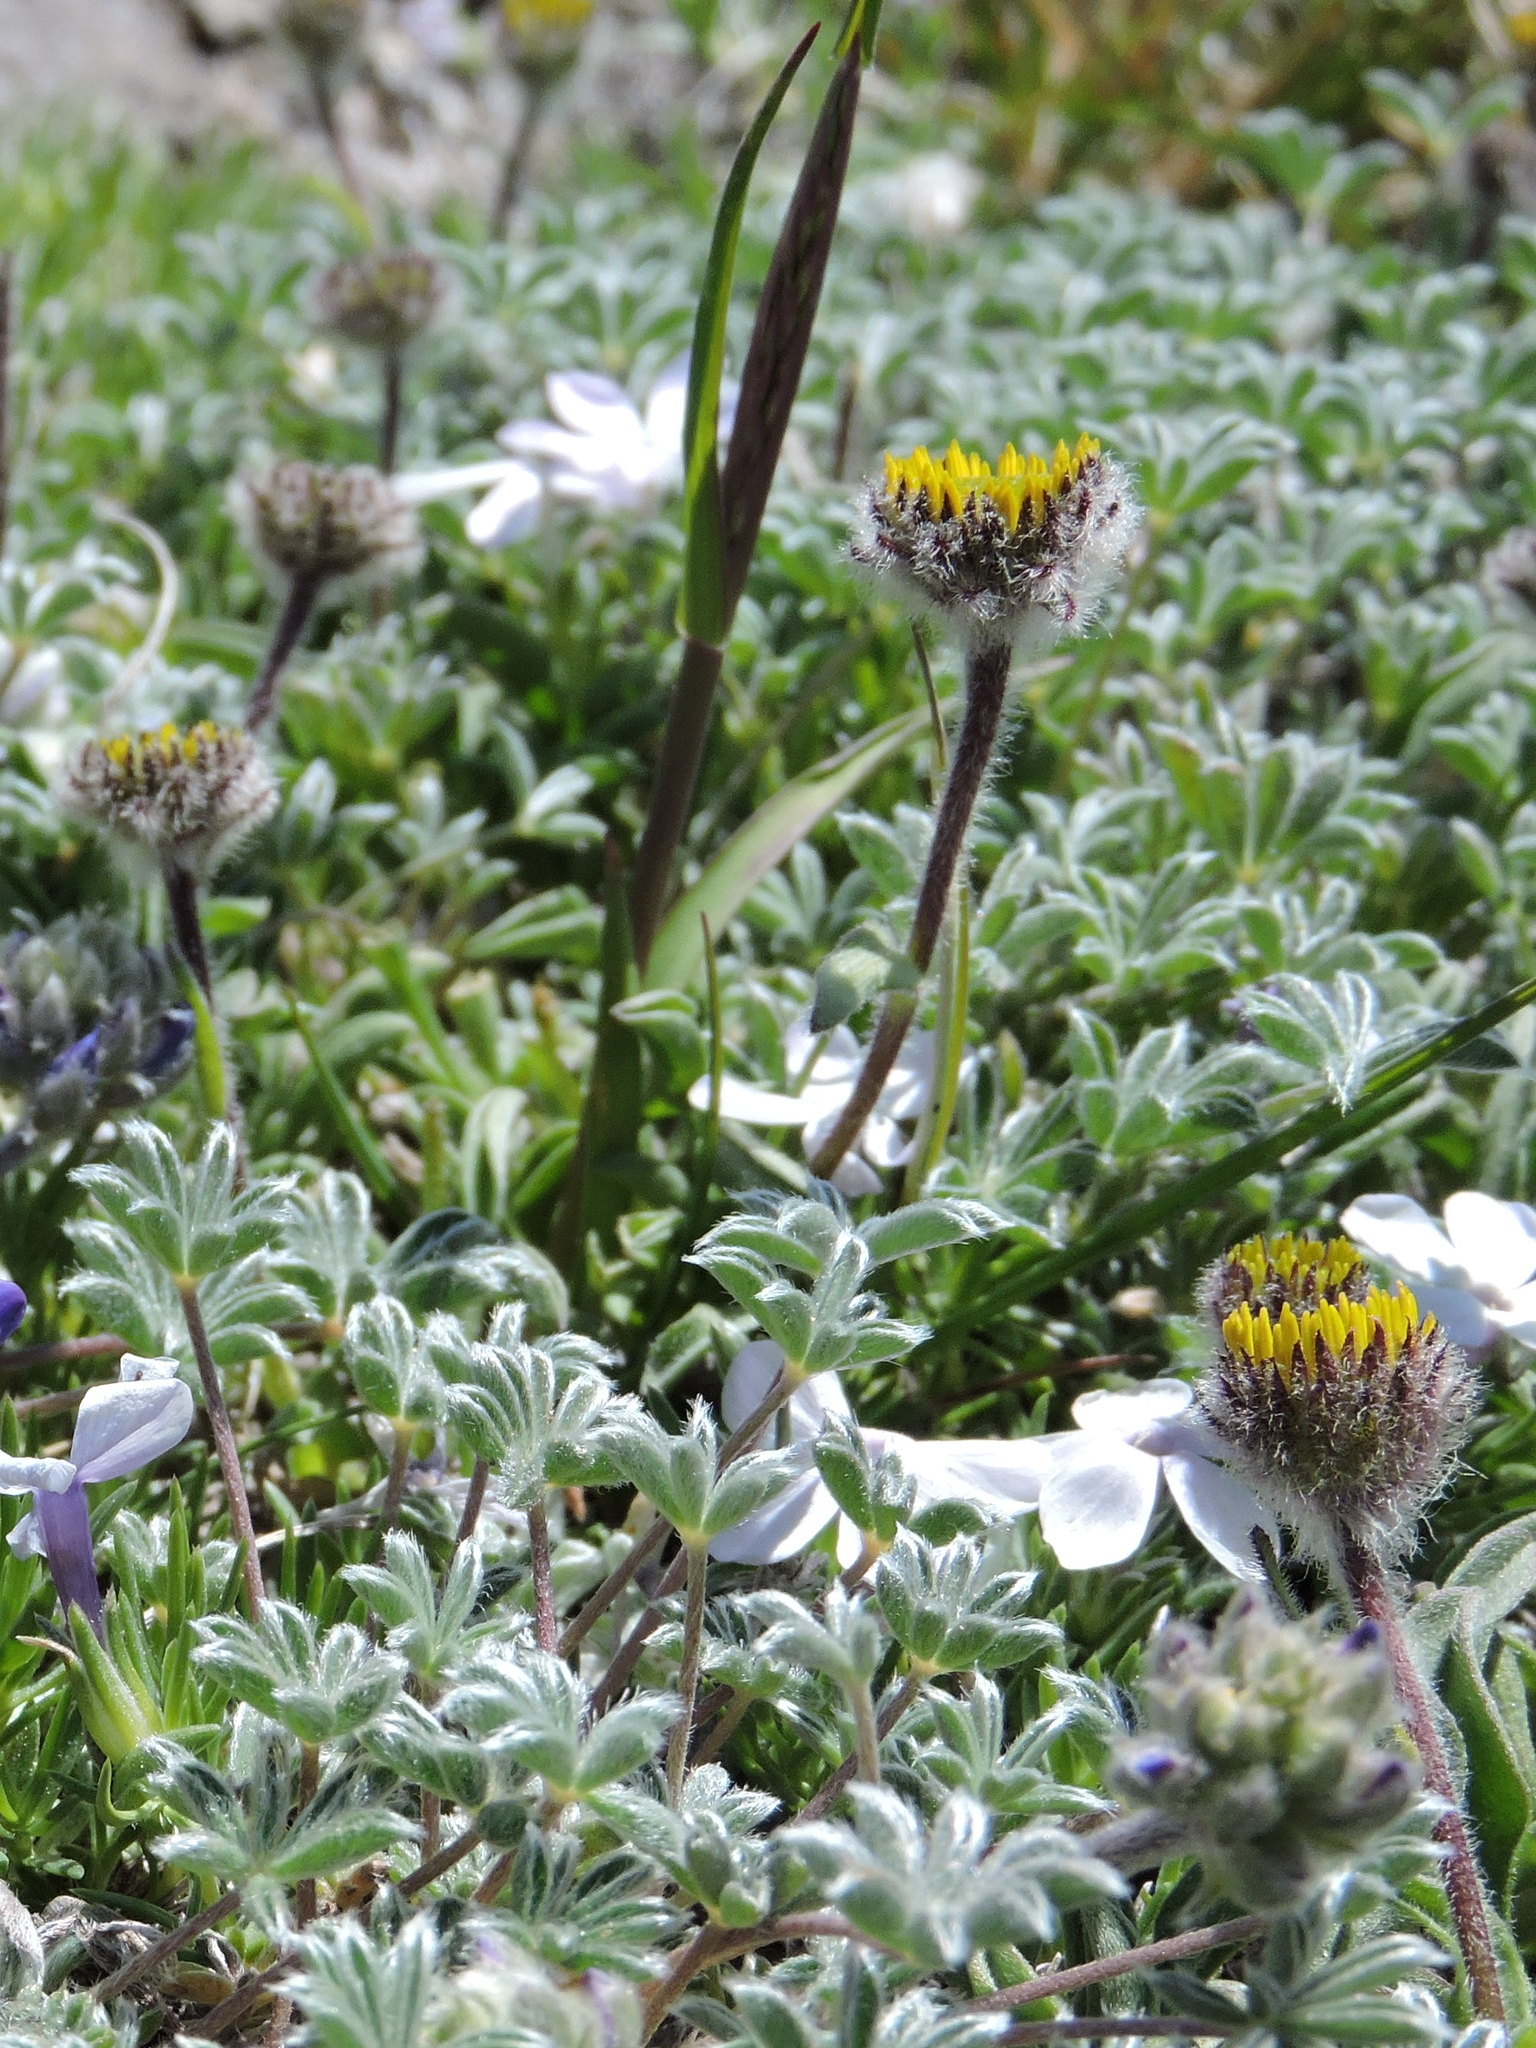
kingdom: Plantae
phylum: Tracheophyta
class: Magnoliopsida
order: Asterales
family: Asteraceae
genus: Erigeron
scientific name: Erigeron aureus
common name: Alpine yellow fleabane
